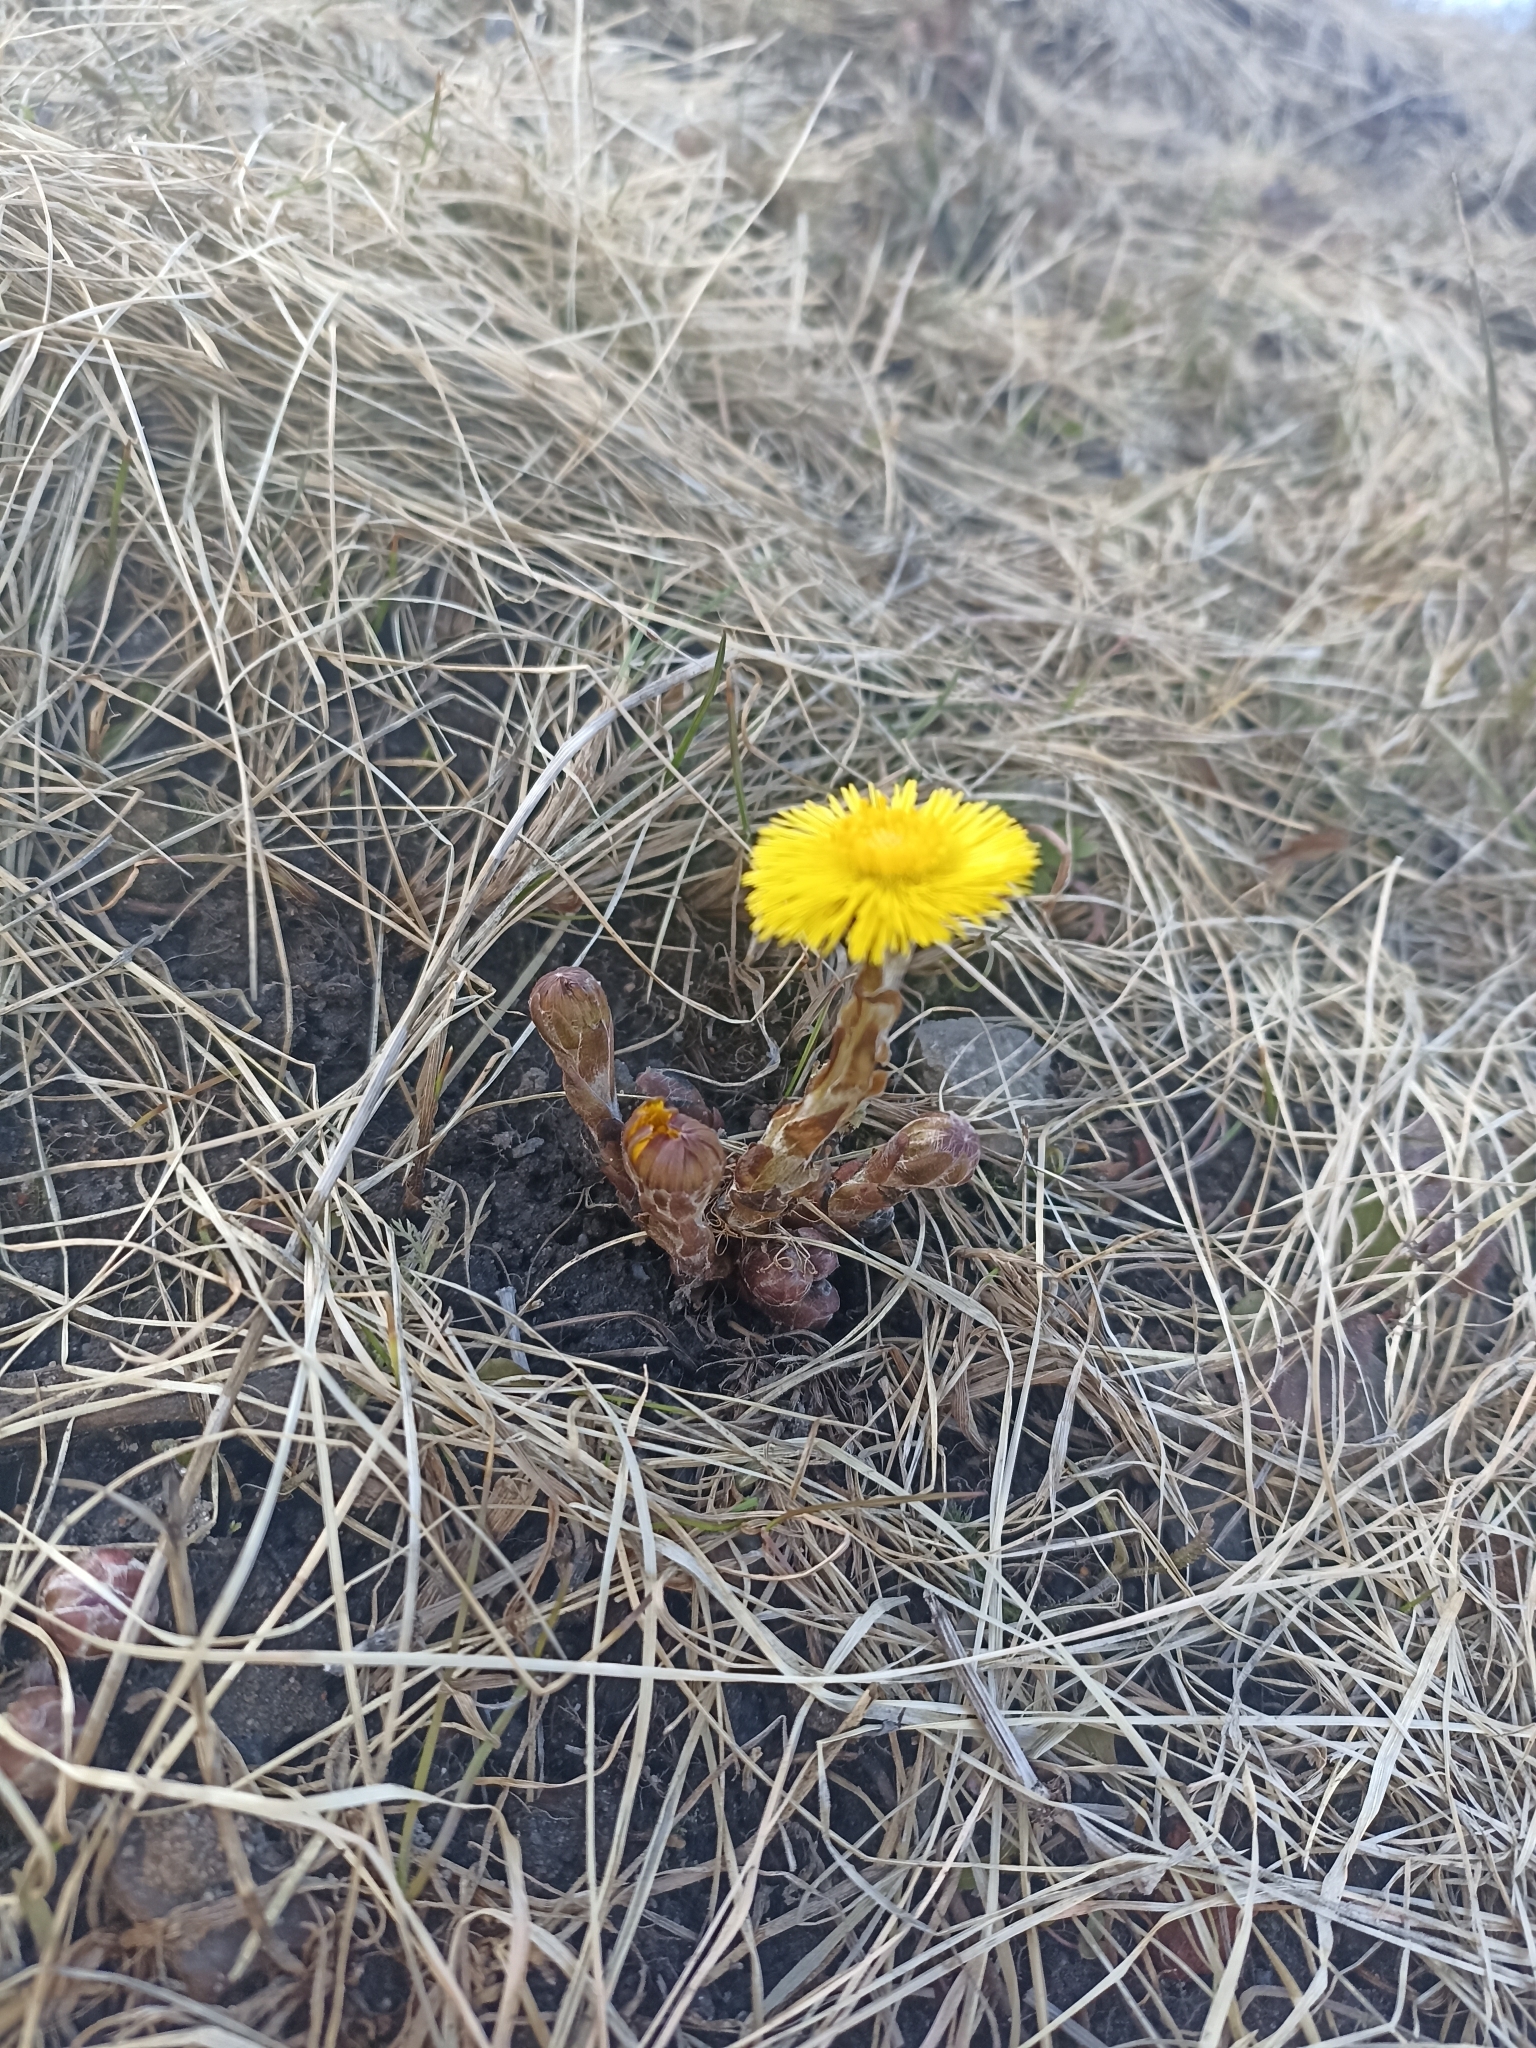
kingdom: Plantae
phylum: Tracheophyta
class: Magnoliopsida
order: Asterales
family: Asteraceae
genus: Tussilago
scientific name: Tussilago farfara
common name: Coltsfoot
